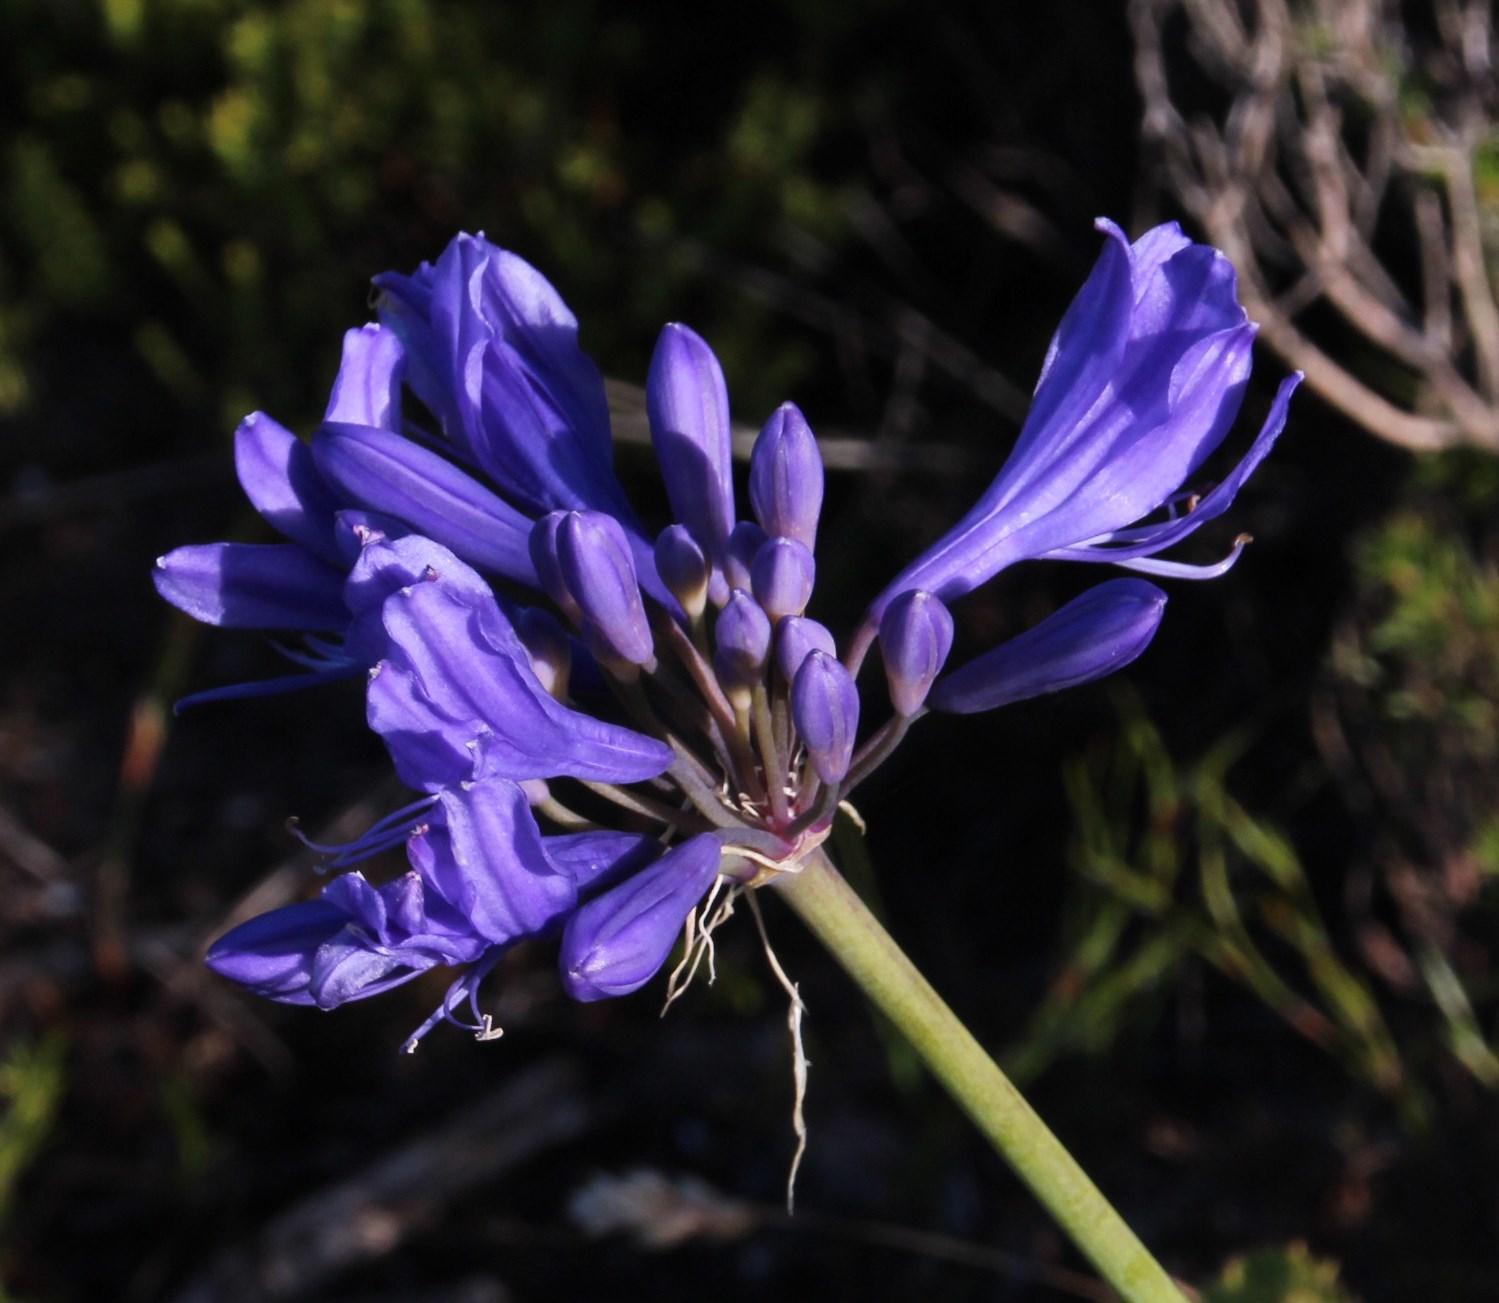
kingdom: Plantae
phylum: Tracheophyta
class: Liliopsida
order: Asparagales
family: Amaryllidaceae
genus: Agapanthus
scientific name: Agapanthus africanus
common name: Lily-of-the-nile
